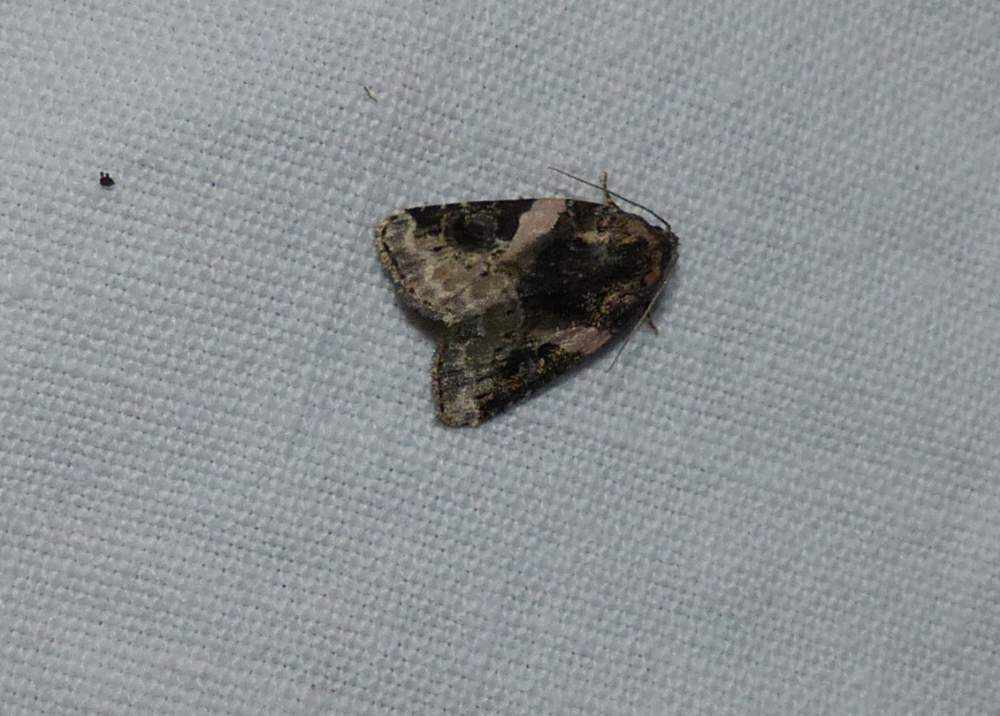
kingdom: Animalia
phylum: Arthropoda
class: Insecta
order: Lepidoptera
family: Noctuidae
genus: Pseudeustrotia
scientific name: Pseudeustrotia carneola
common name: Pink-barred lithacodia moth
